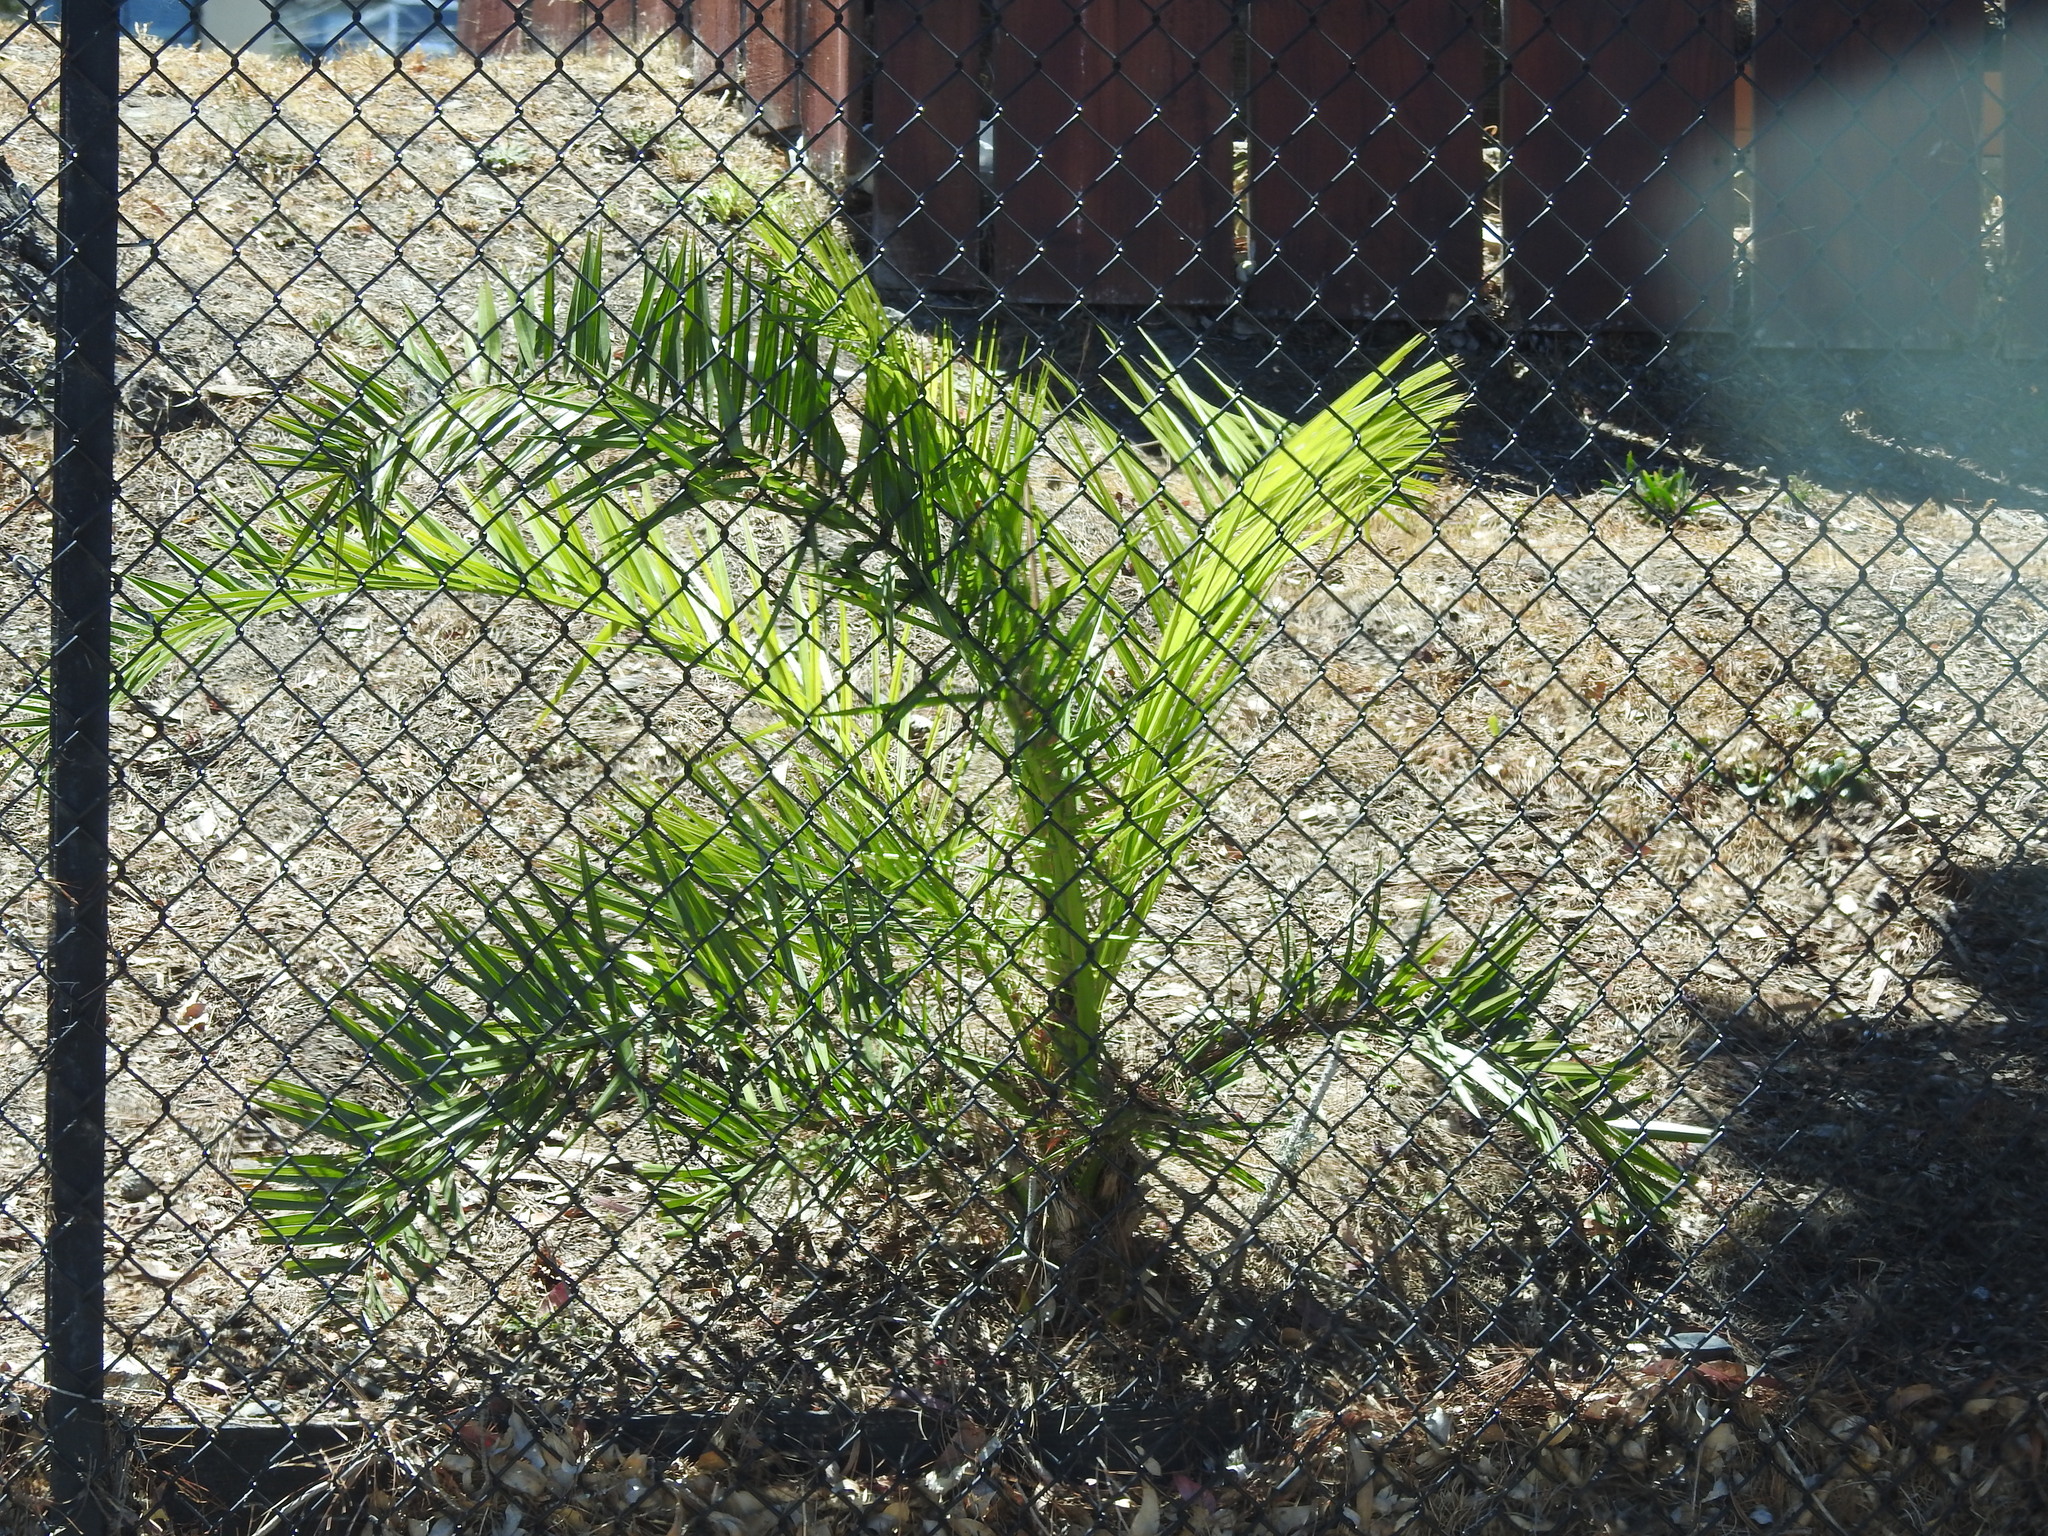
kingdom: Plantae
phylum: Tracheophyta
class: Liliopsida
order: Arecales
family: Arecaceae
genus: Phoenix
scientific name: Phoenix canariensis
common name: Canary island date palm
